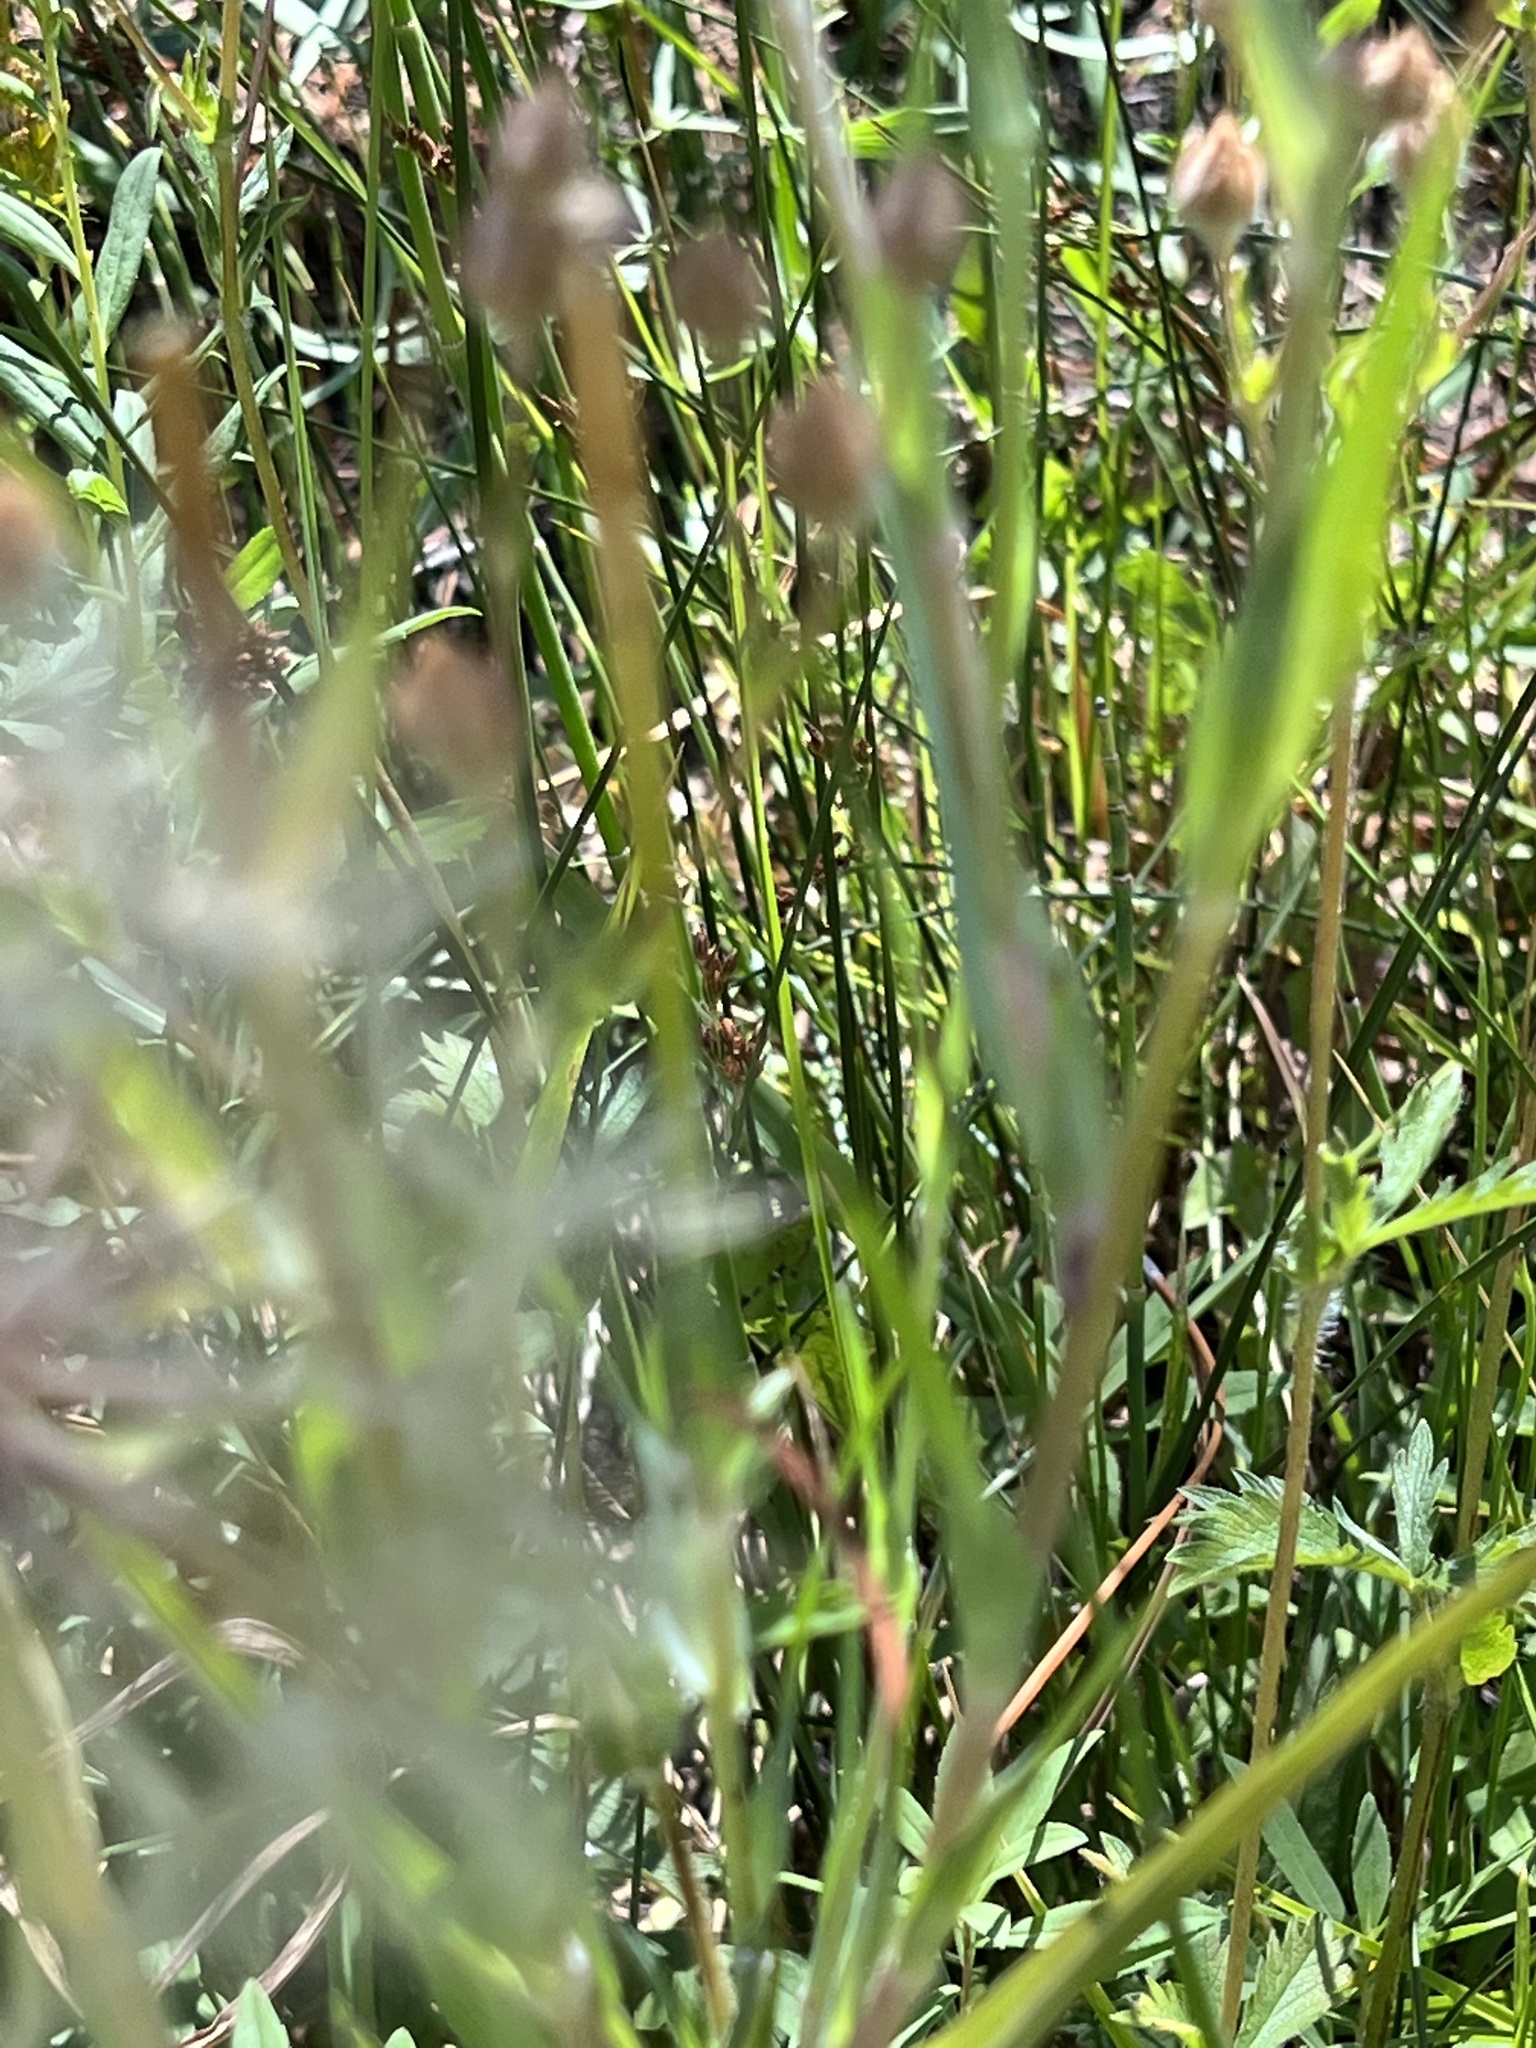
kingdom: Plantae
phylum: Tracheophyta
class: Magnoliopsida
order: Asterales
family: Asteraceae
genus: Tragopogon
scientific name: Tragopogon dubius
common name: Yellow salsify
